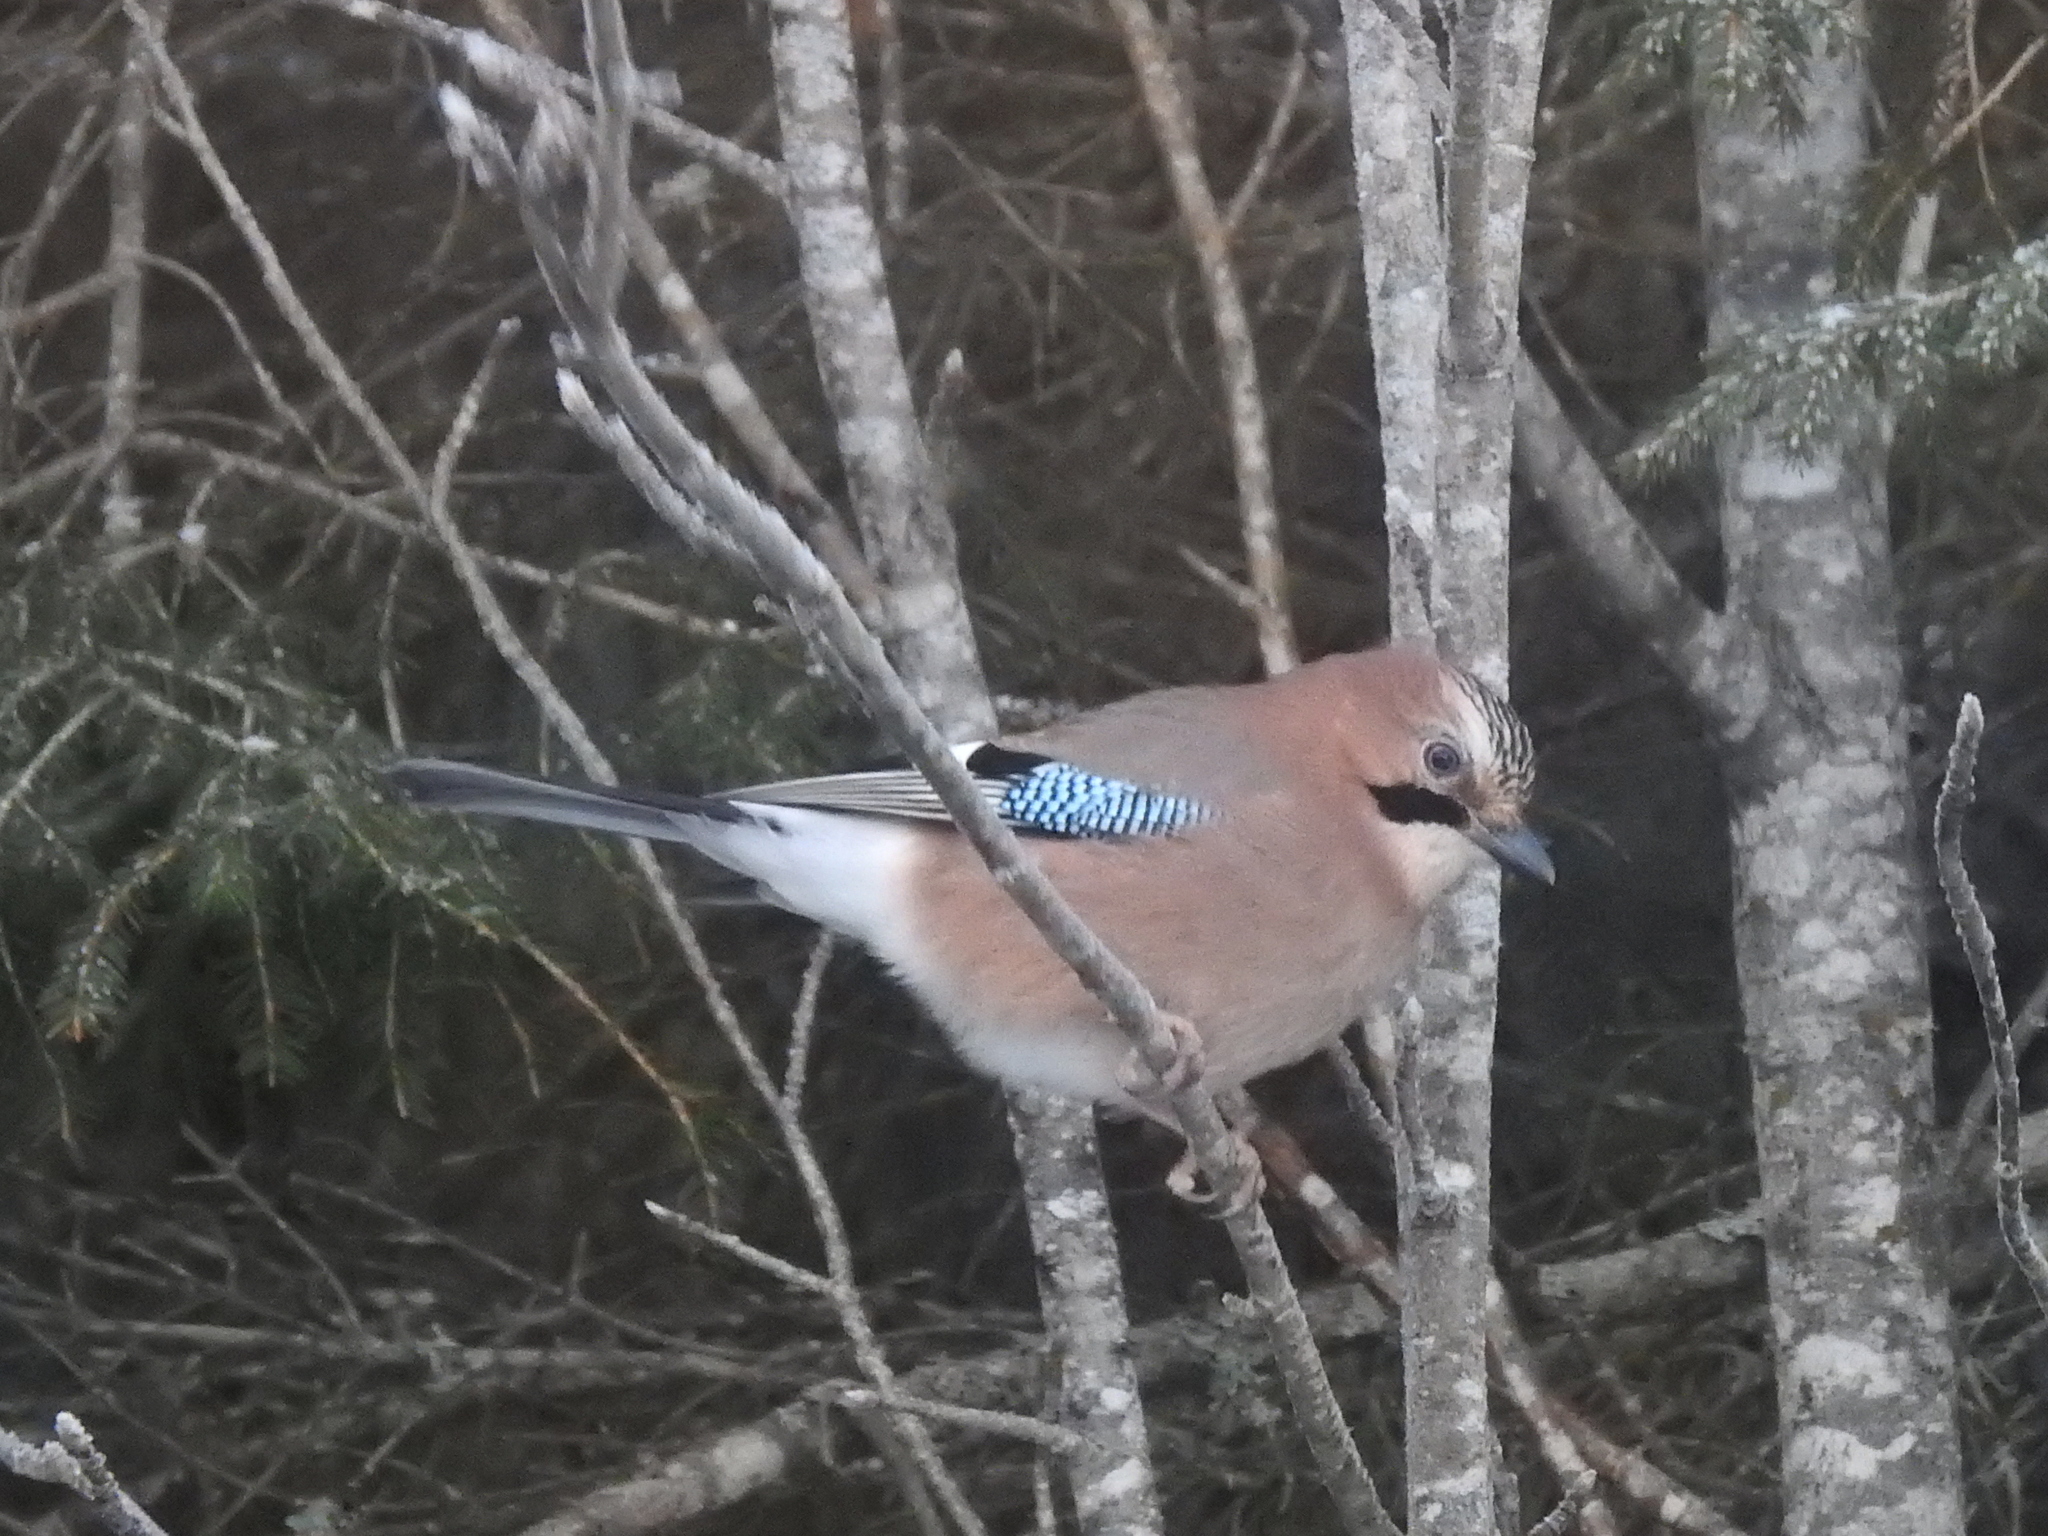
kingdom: Animalia
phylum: Chordata
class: Aves
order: Passeriformes
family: Corvidae
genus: Garrulus
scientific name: Garrulus glandarius
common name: Eurasian jay
